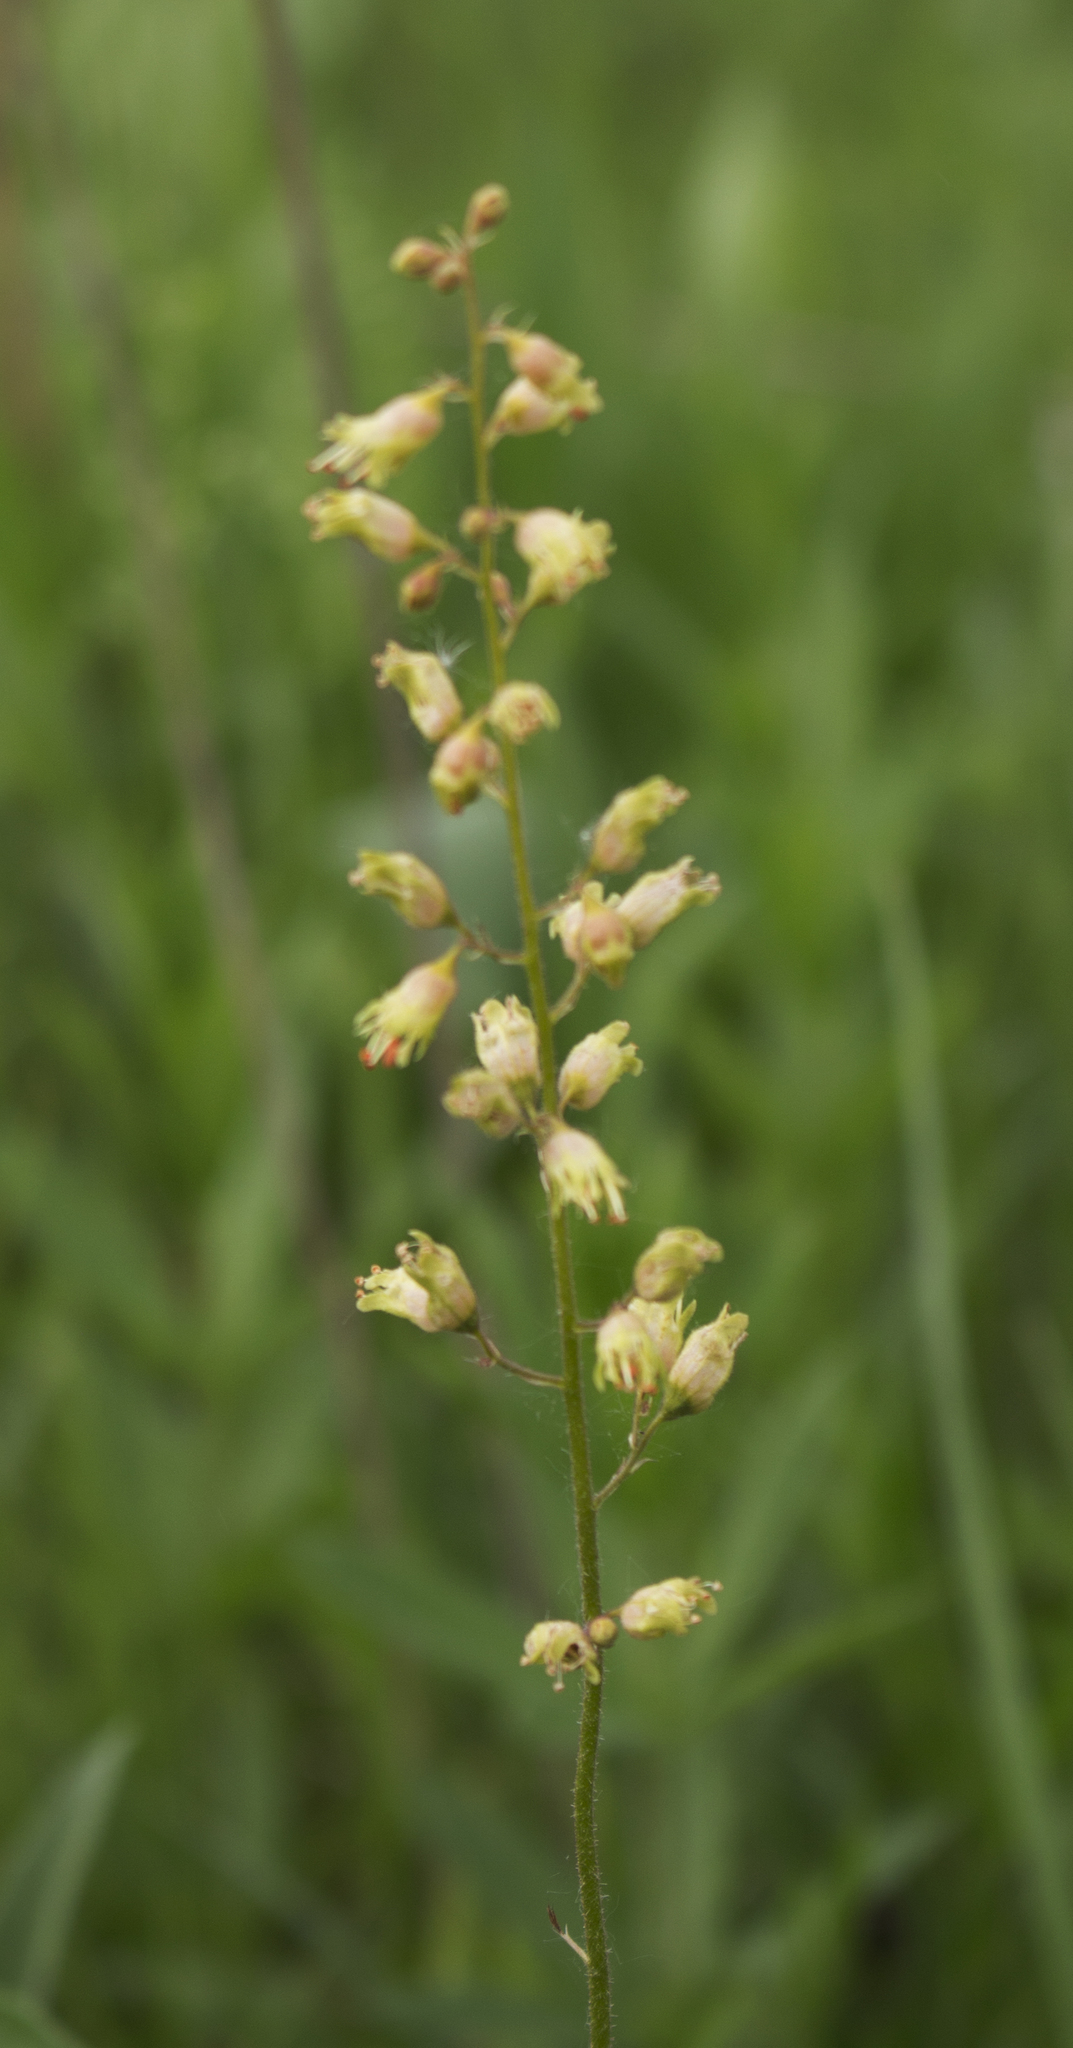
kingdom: Plantae
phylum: Tracheophyta
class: Magnoliopsida
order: Saxifragales
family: Saxifragaceae
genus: Heuchera
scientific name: Heuchera richardsonii
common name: Richardson's alumroot
